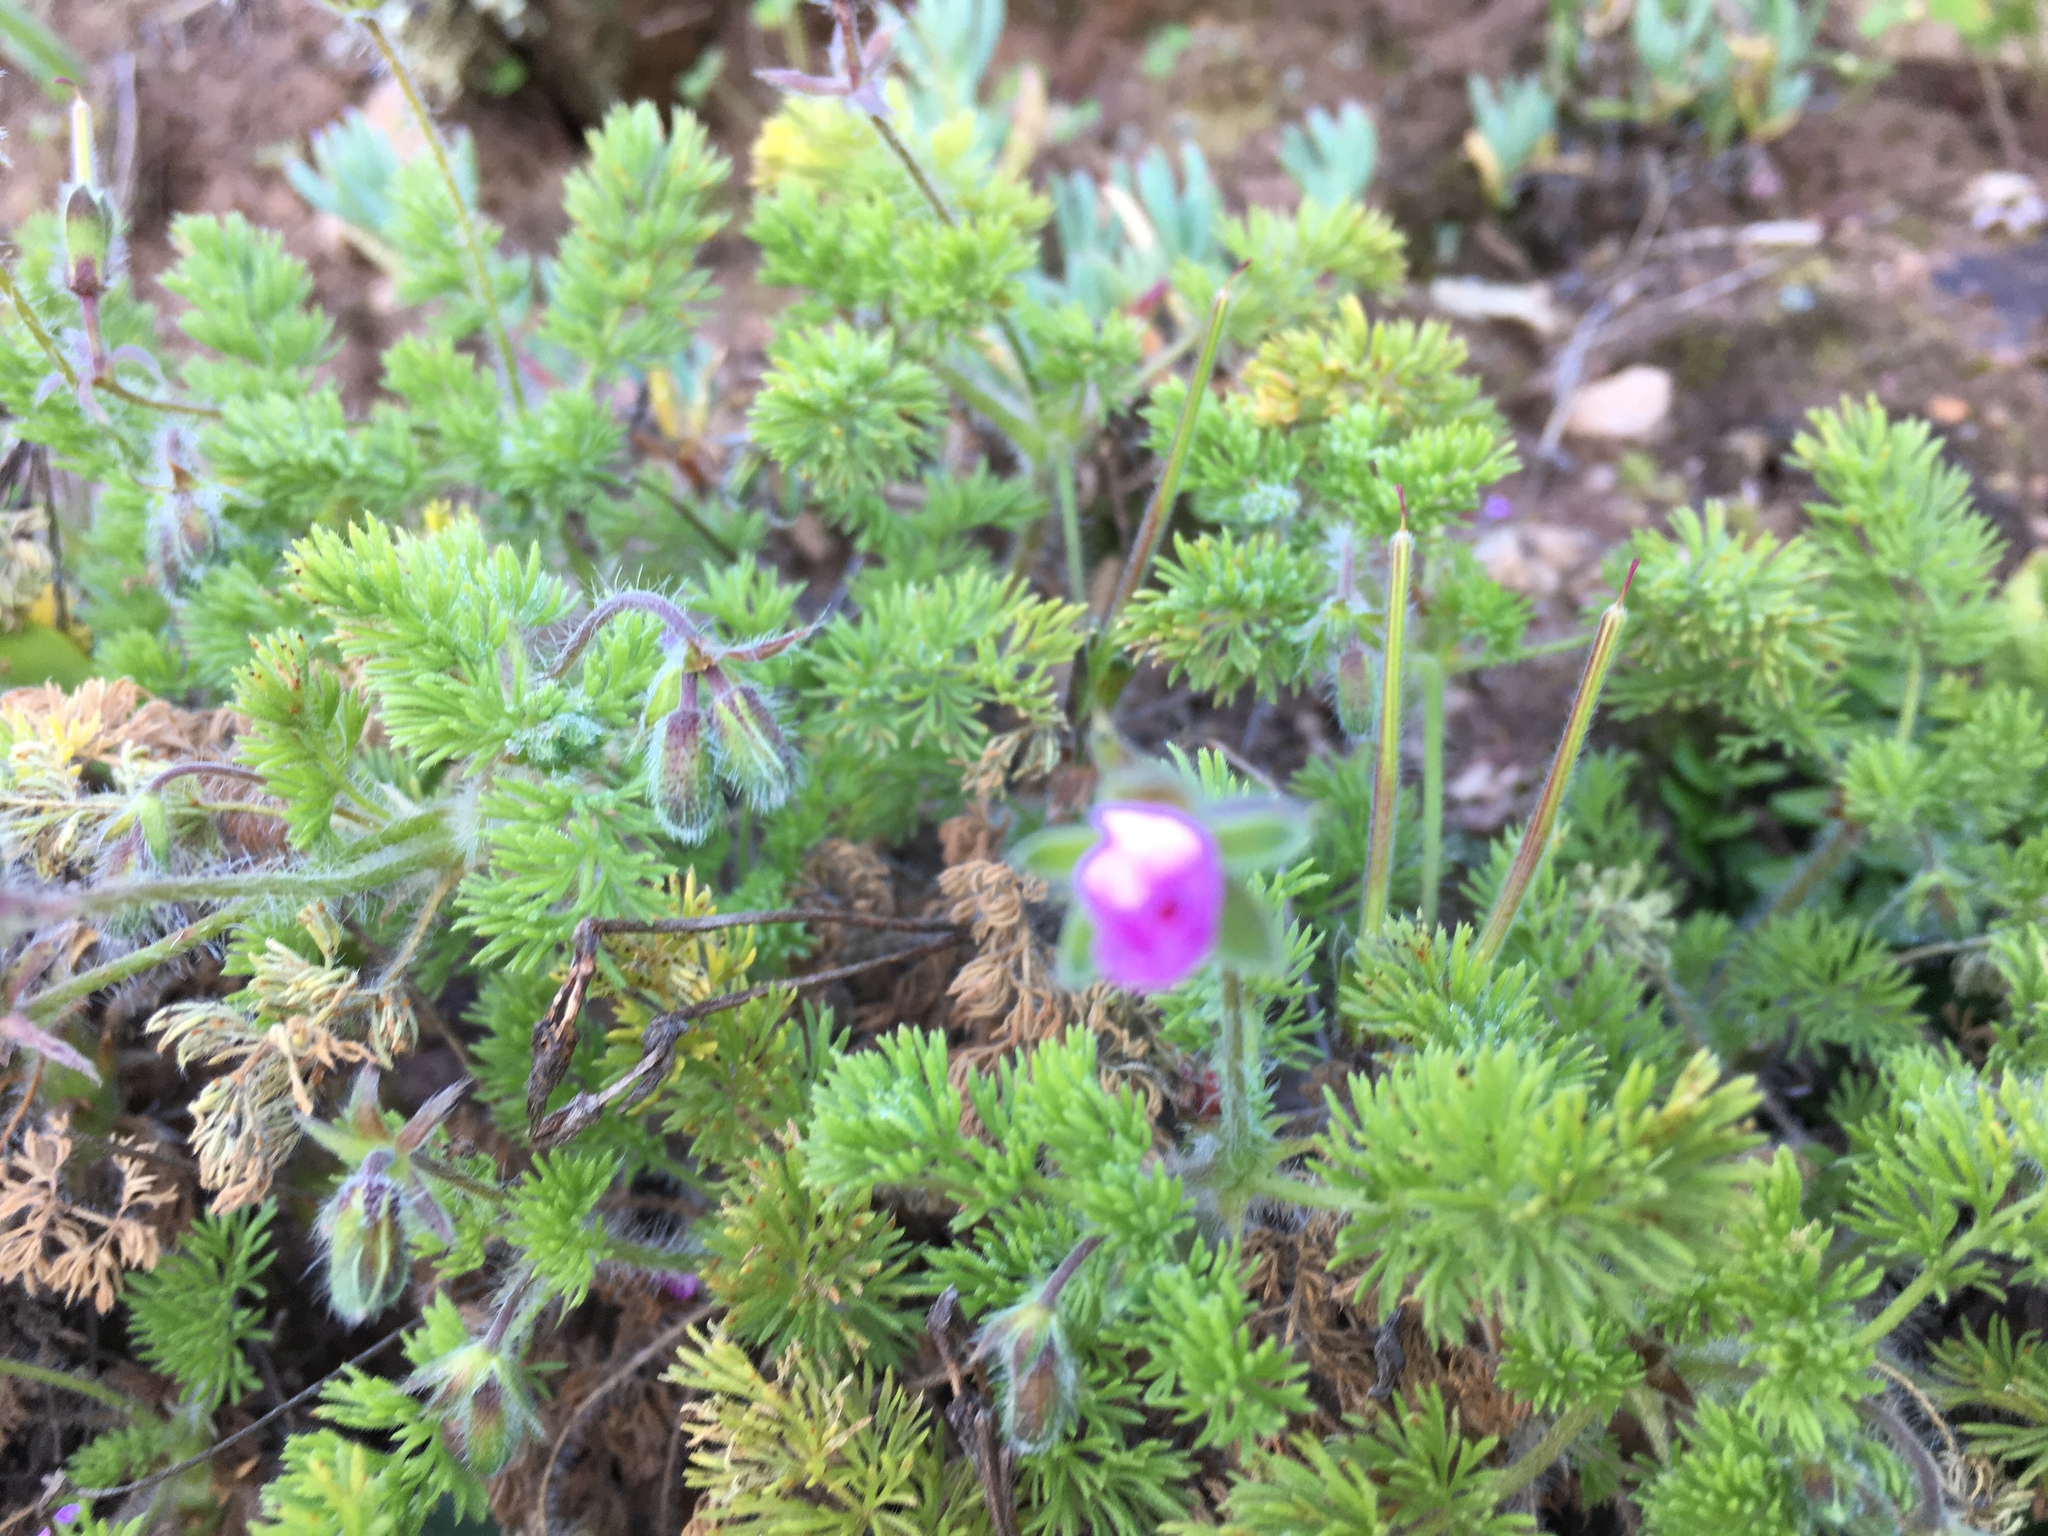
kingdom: Plantae
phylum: Tracheophyta
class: Magnoliopsida
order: Geraniales
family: Geraniaceae
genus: Pelargonium
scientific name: Pelargonium hirtum
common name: Fine-leaf pelargonium
